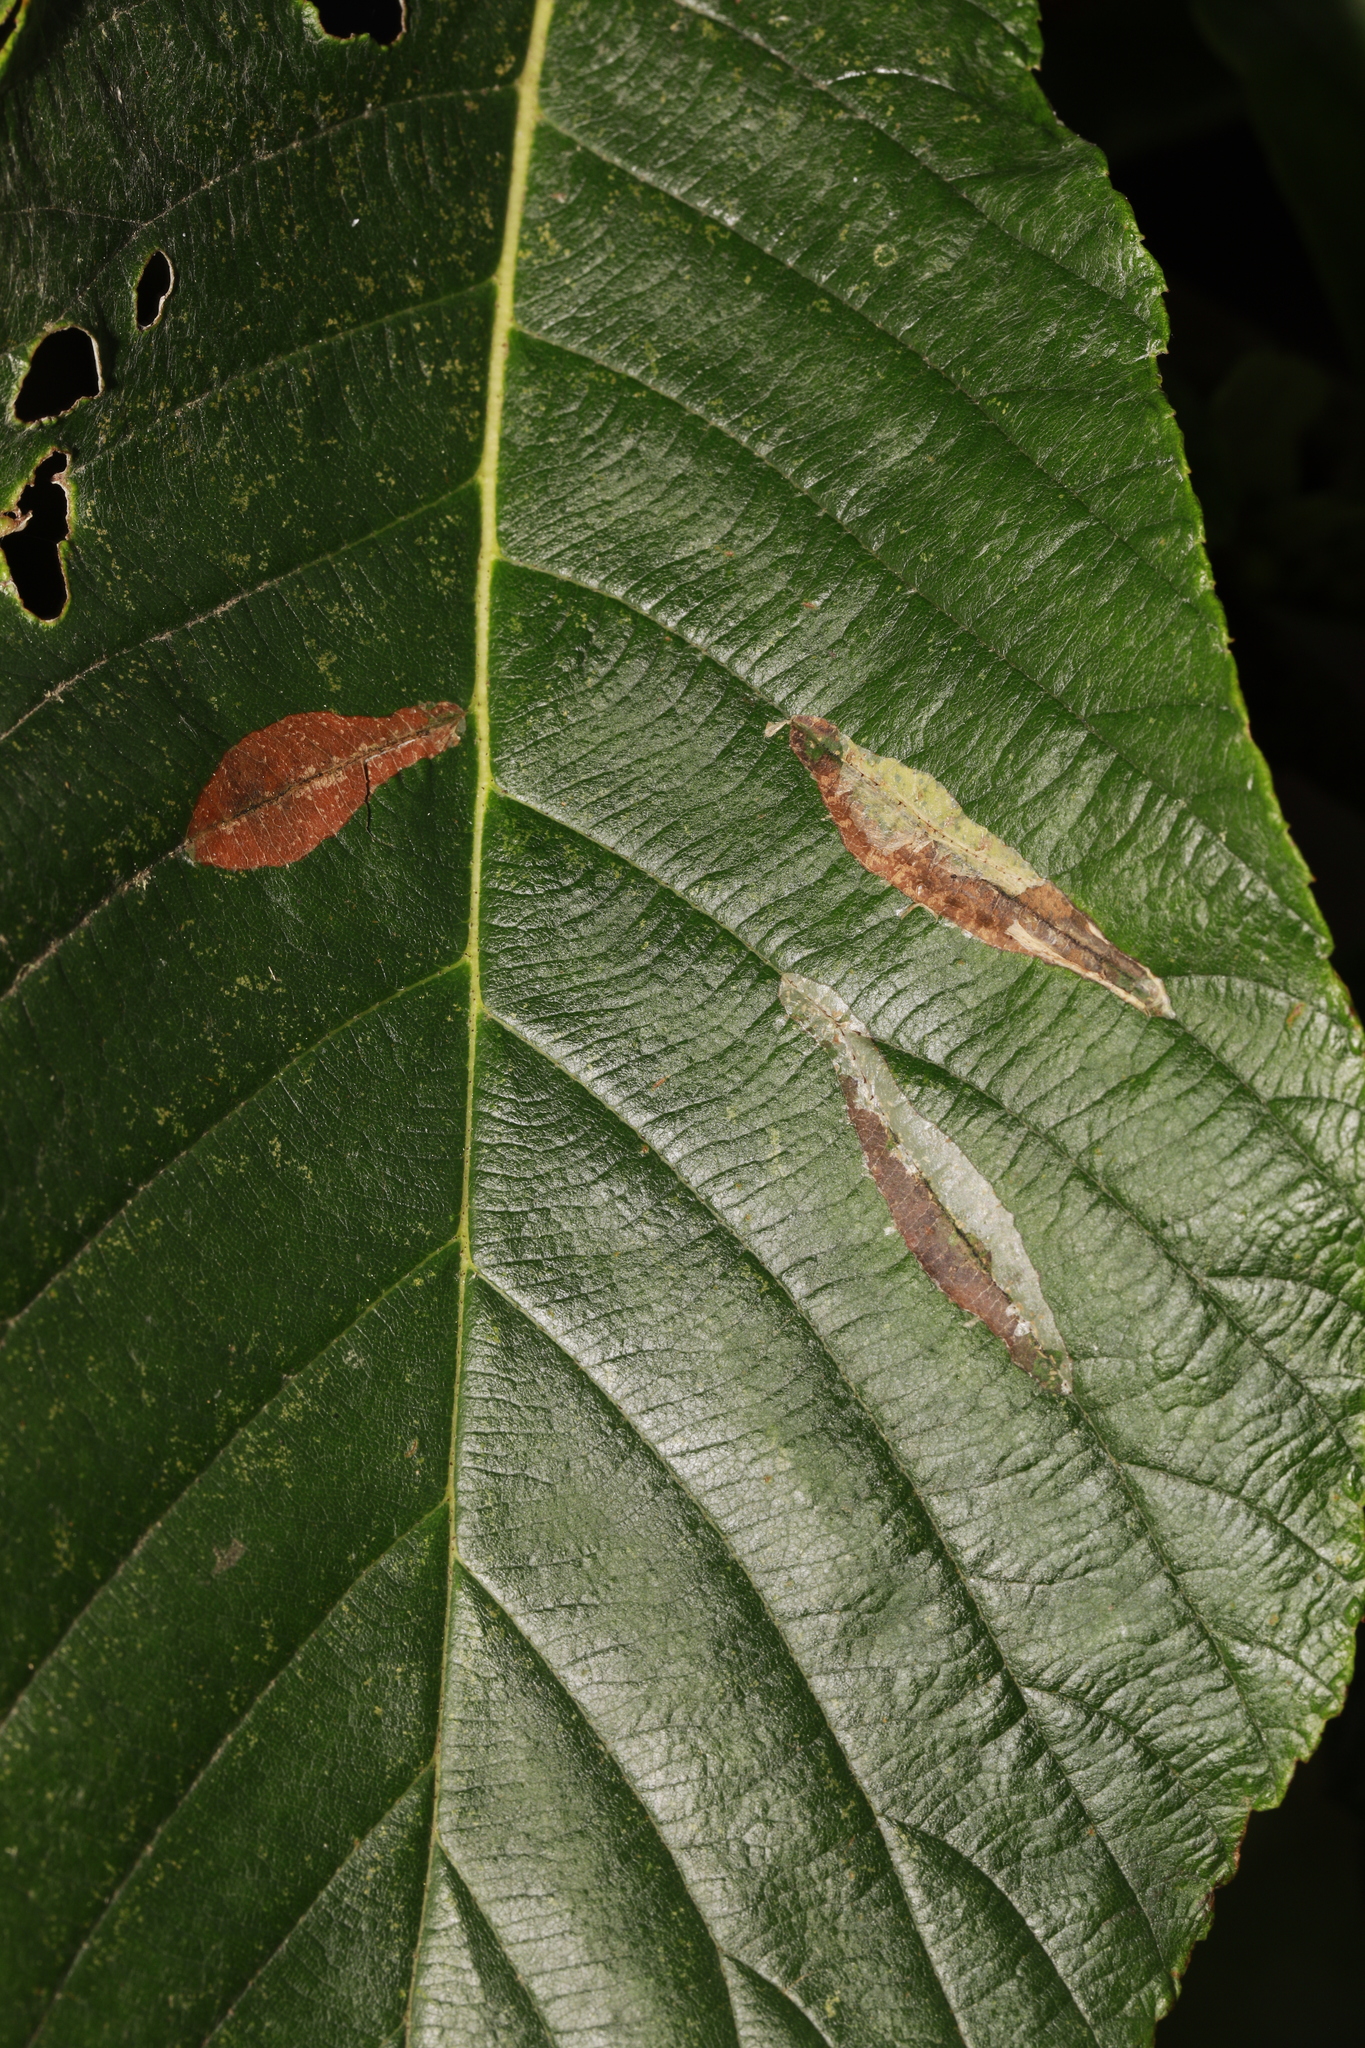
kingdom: Animalia
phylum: Arthropoda
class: Insecta
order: Lepidoptera
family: Gracillariidae
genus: Phyllonorycter
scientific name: Phyllonorycter leucographella
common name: Firethorn leaf-miner
